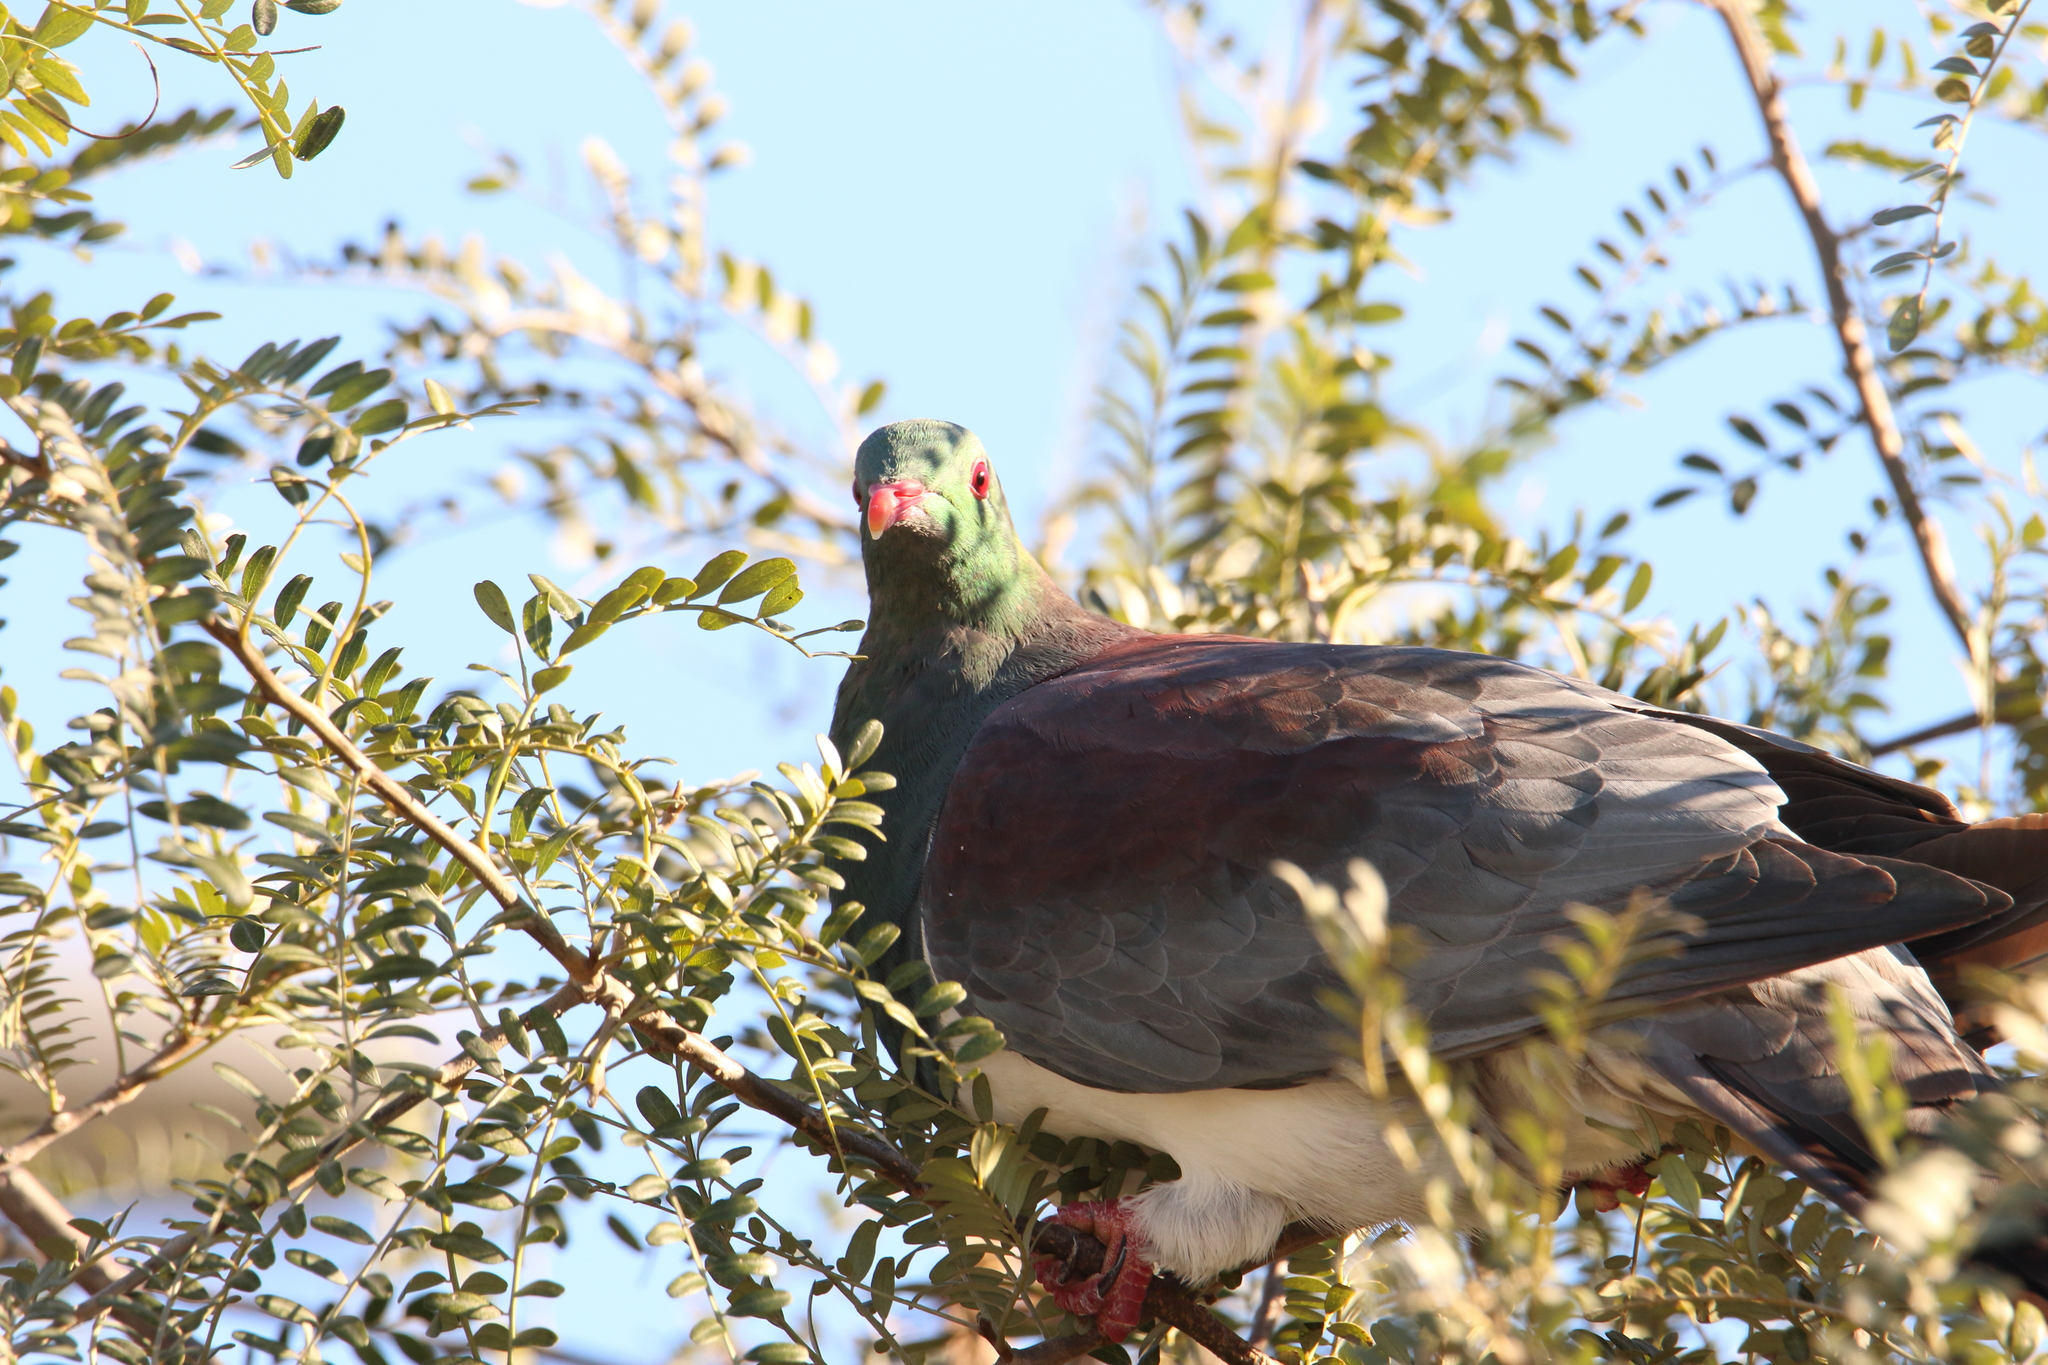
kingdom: Animalia
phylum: Chordata
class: Aves
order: Columbiformes
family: Columbidae
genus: Hemiphaga
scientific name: Hemiphaga novaeseelandiae
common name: New zealand pigeon
